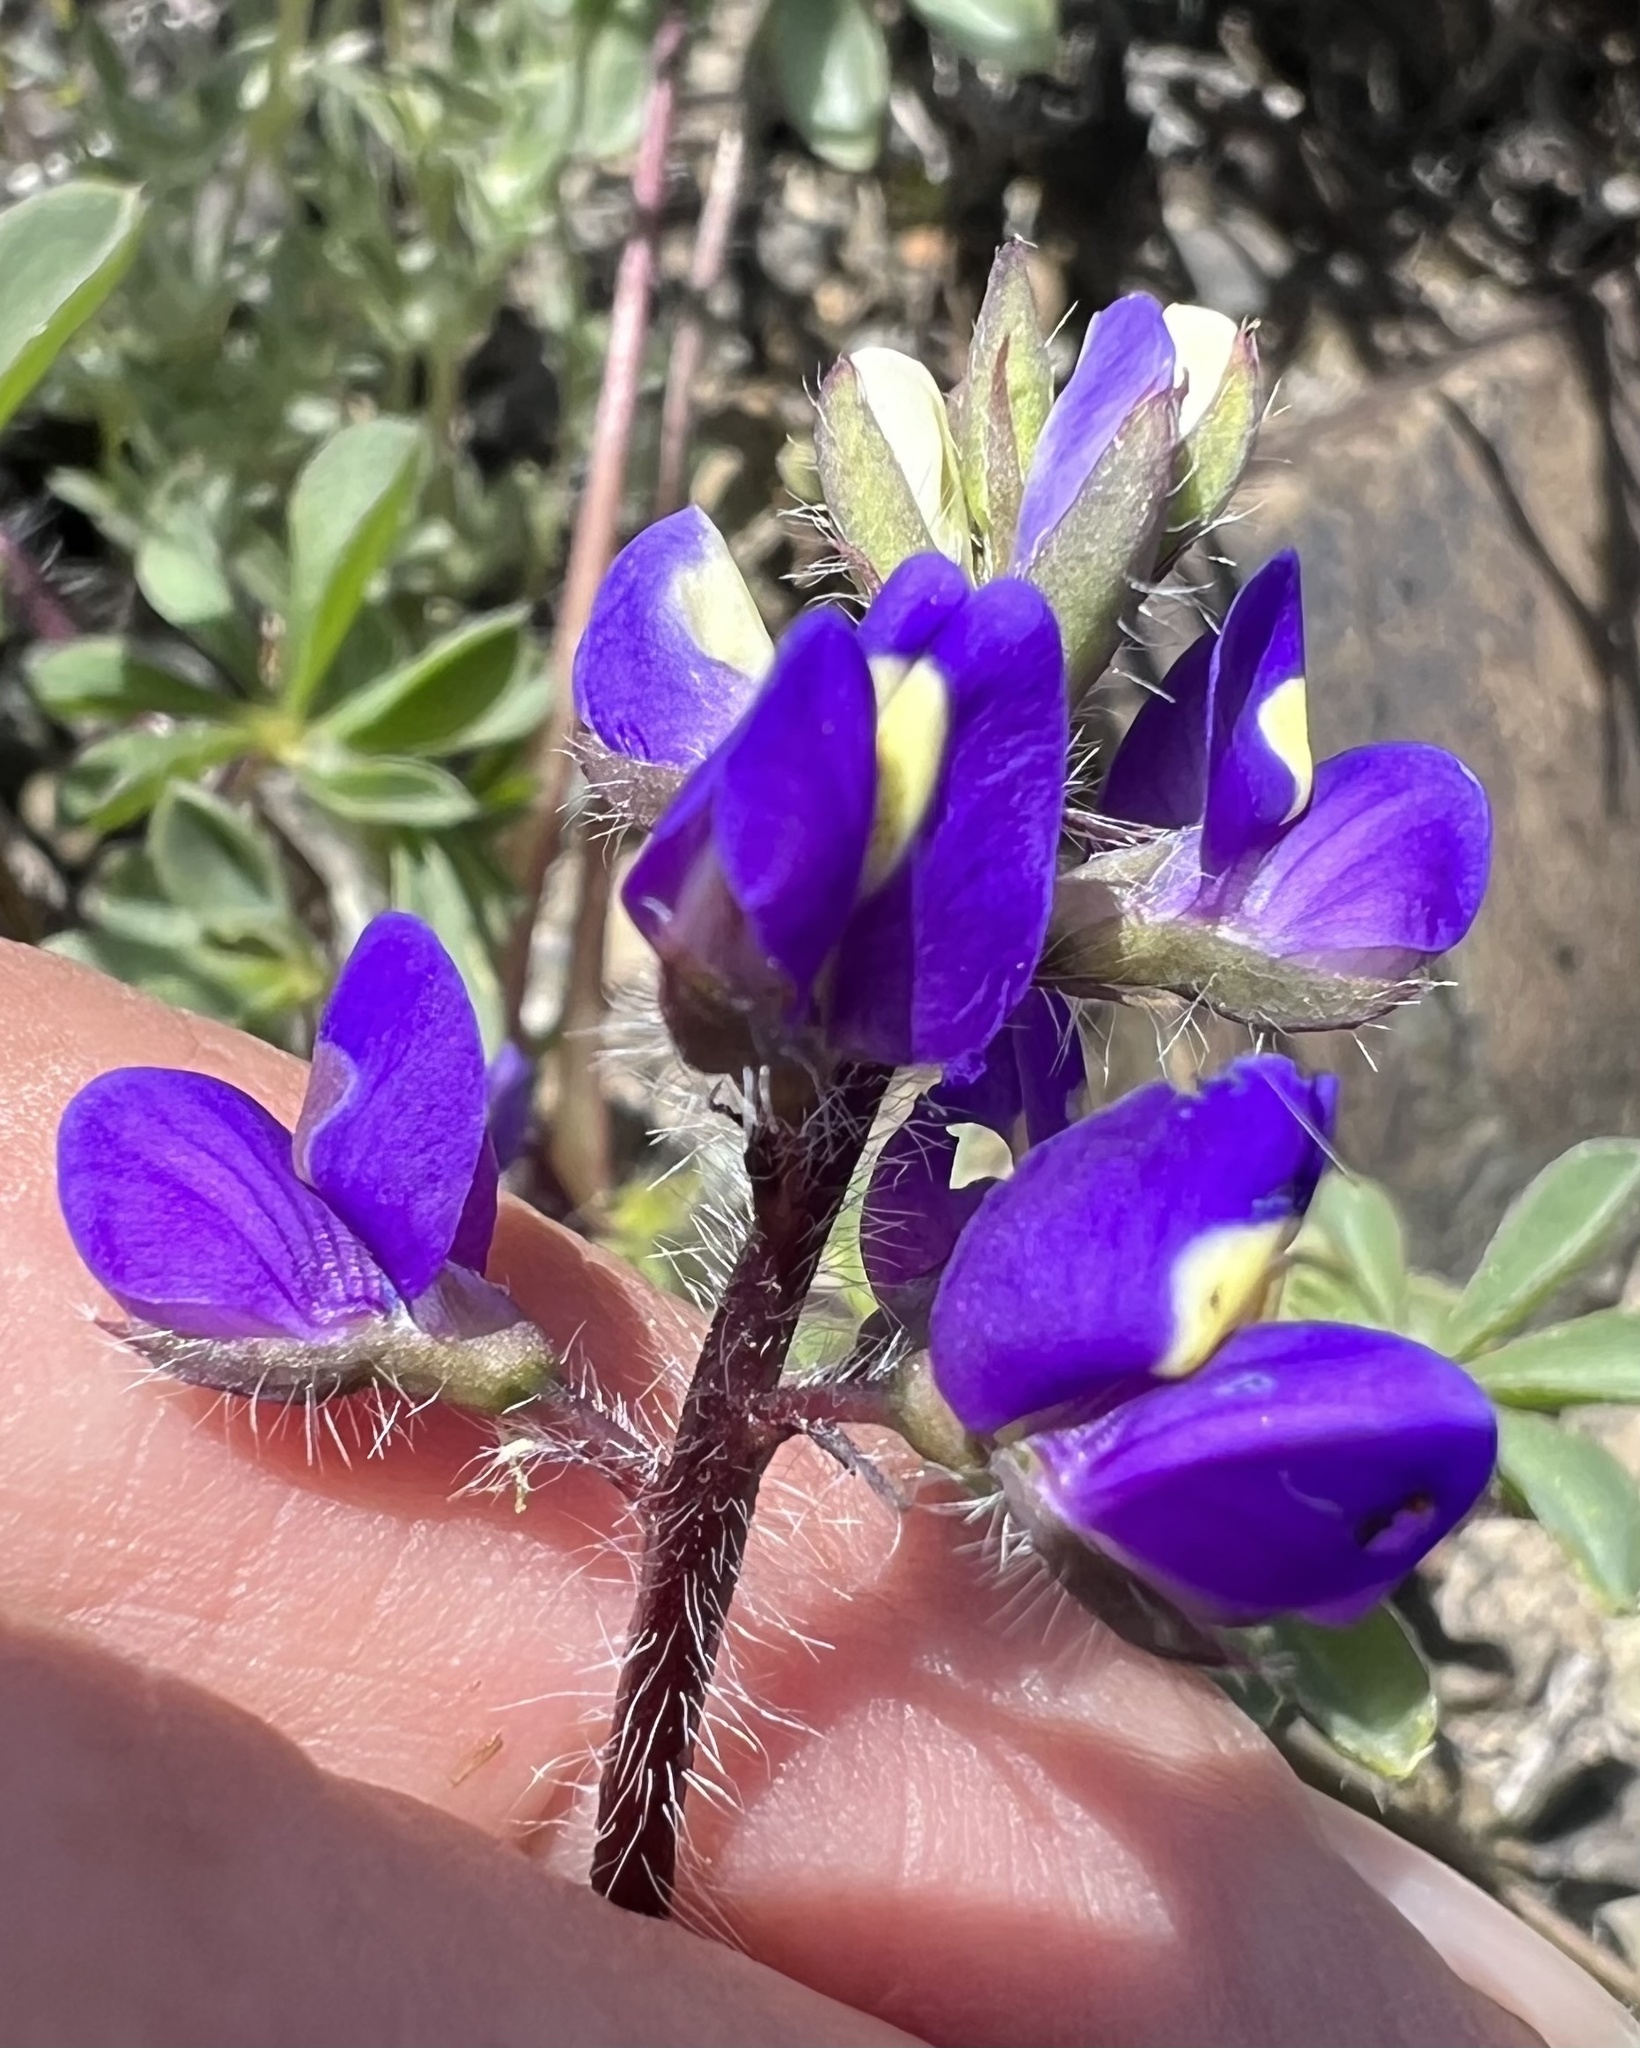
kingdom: Plantae
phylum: Tracheophyta
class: Magnoliopsida
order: Fabales
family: Fabaceae
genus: Lupinus
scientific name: Lupinus flavoculatus
